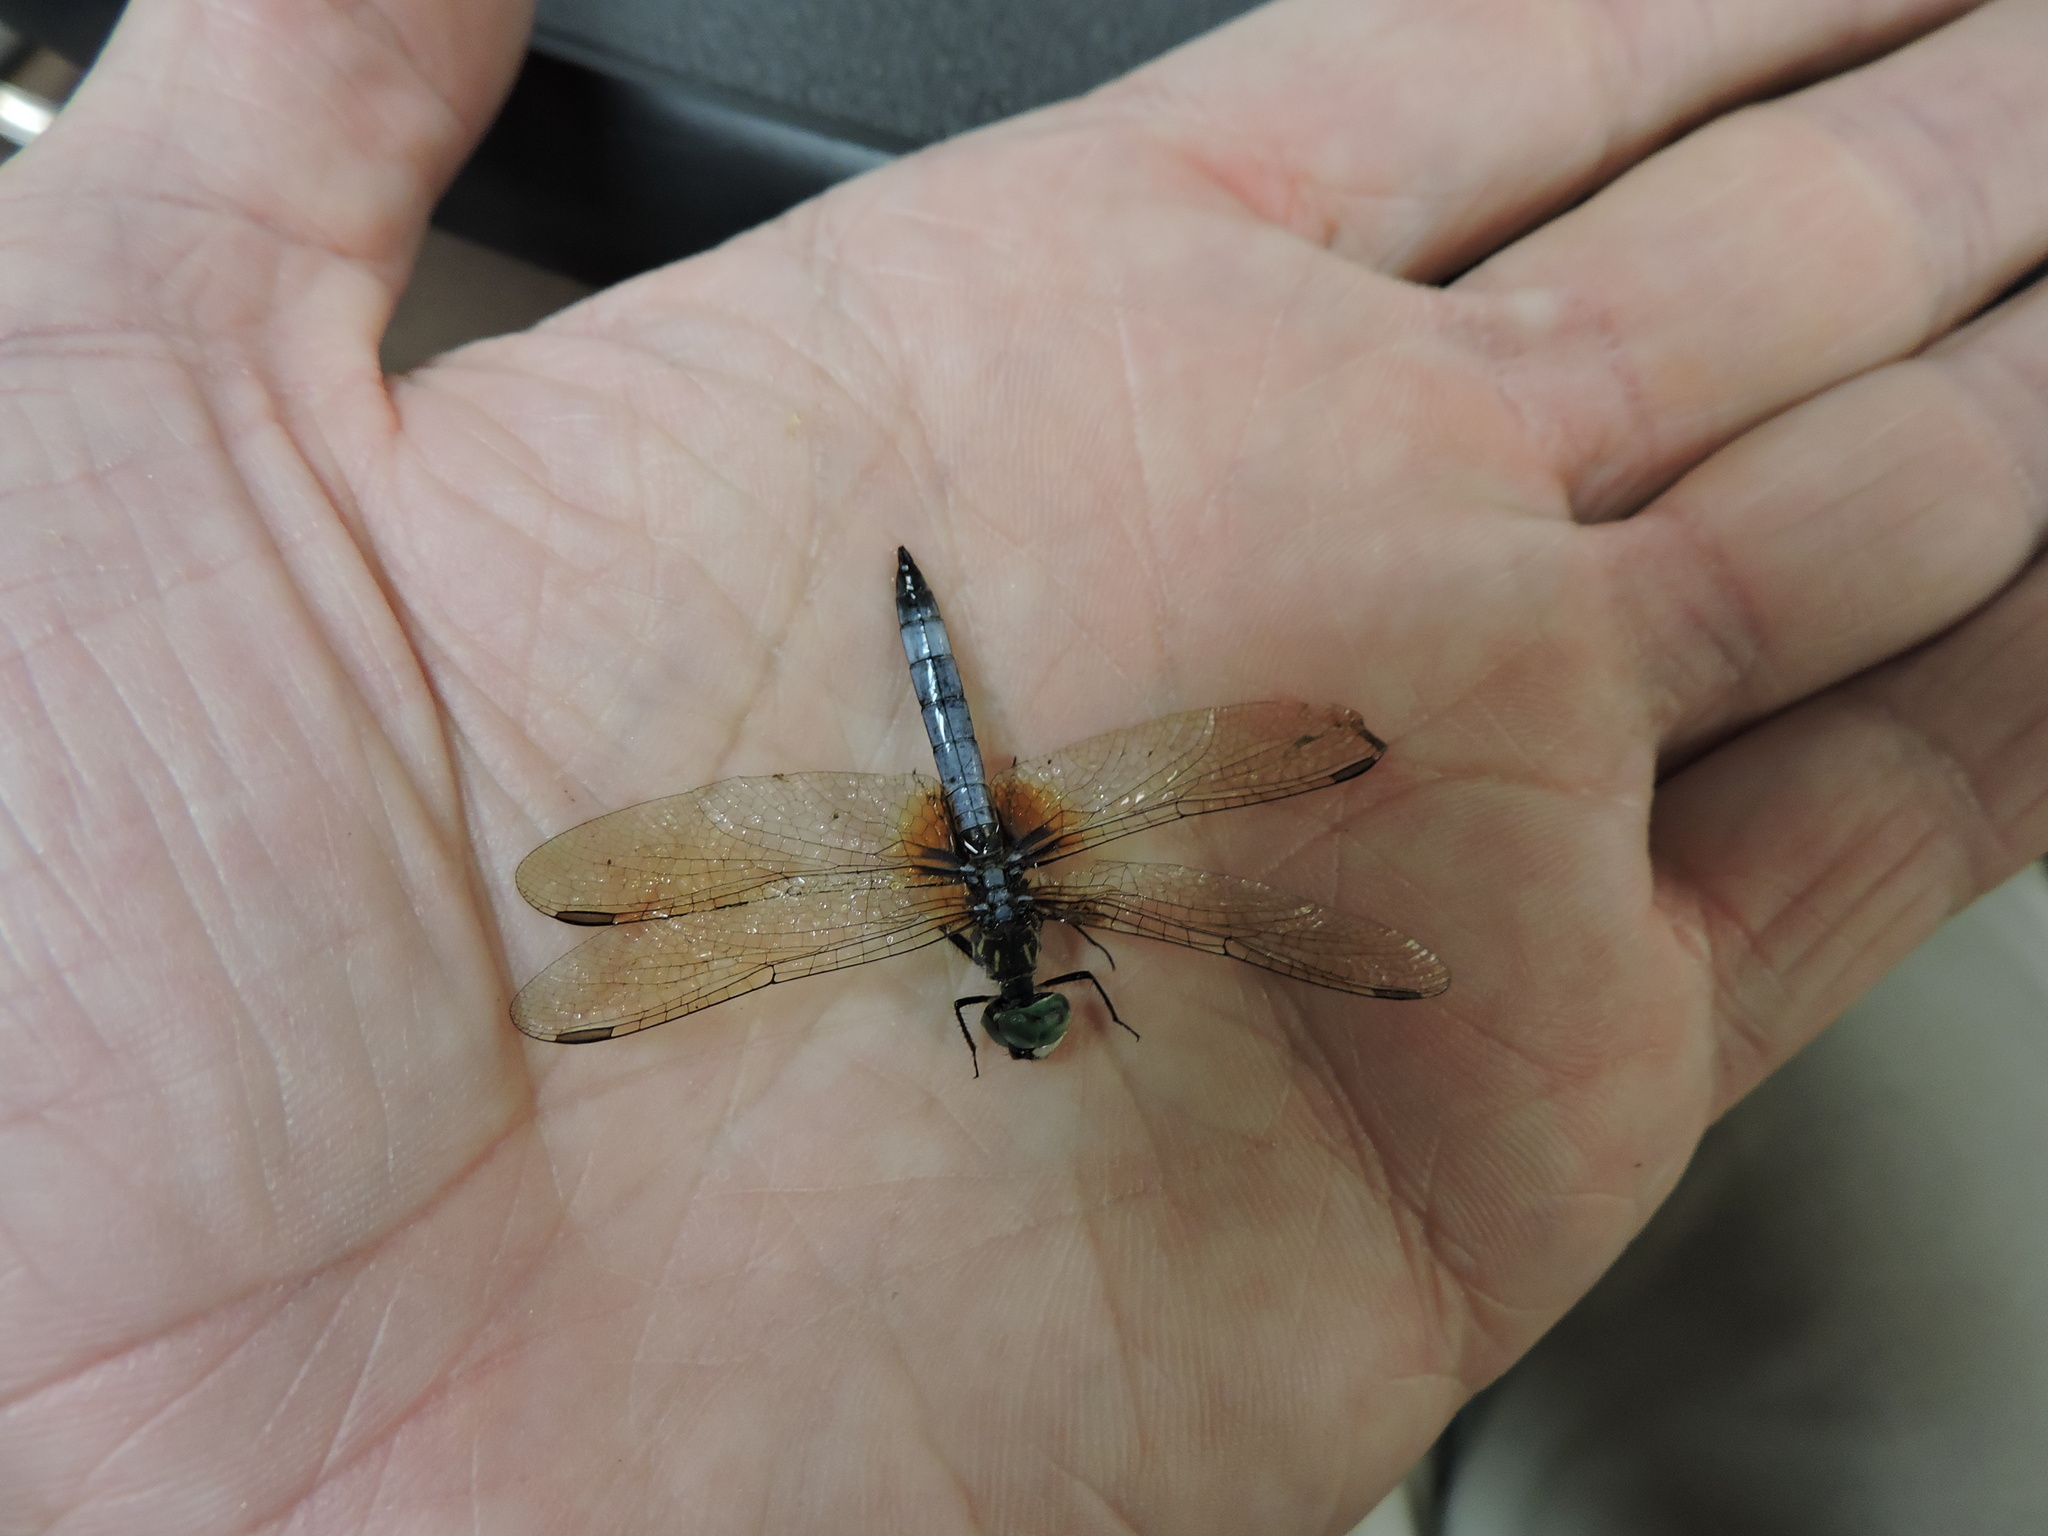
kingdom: Animalia
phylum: Arthropoda
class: Insecta
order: Odonata
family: Libellulidae
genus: Pachydiplax
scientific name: Pachydiplax longipennis
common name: Blue dasher
